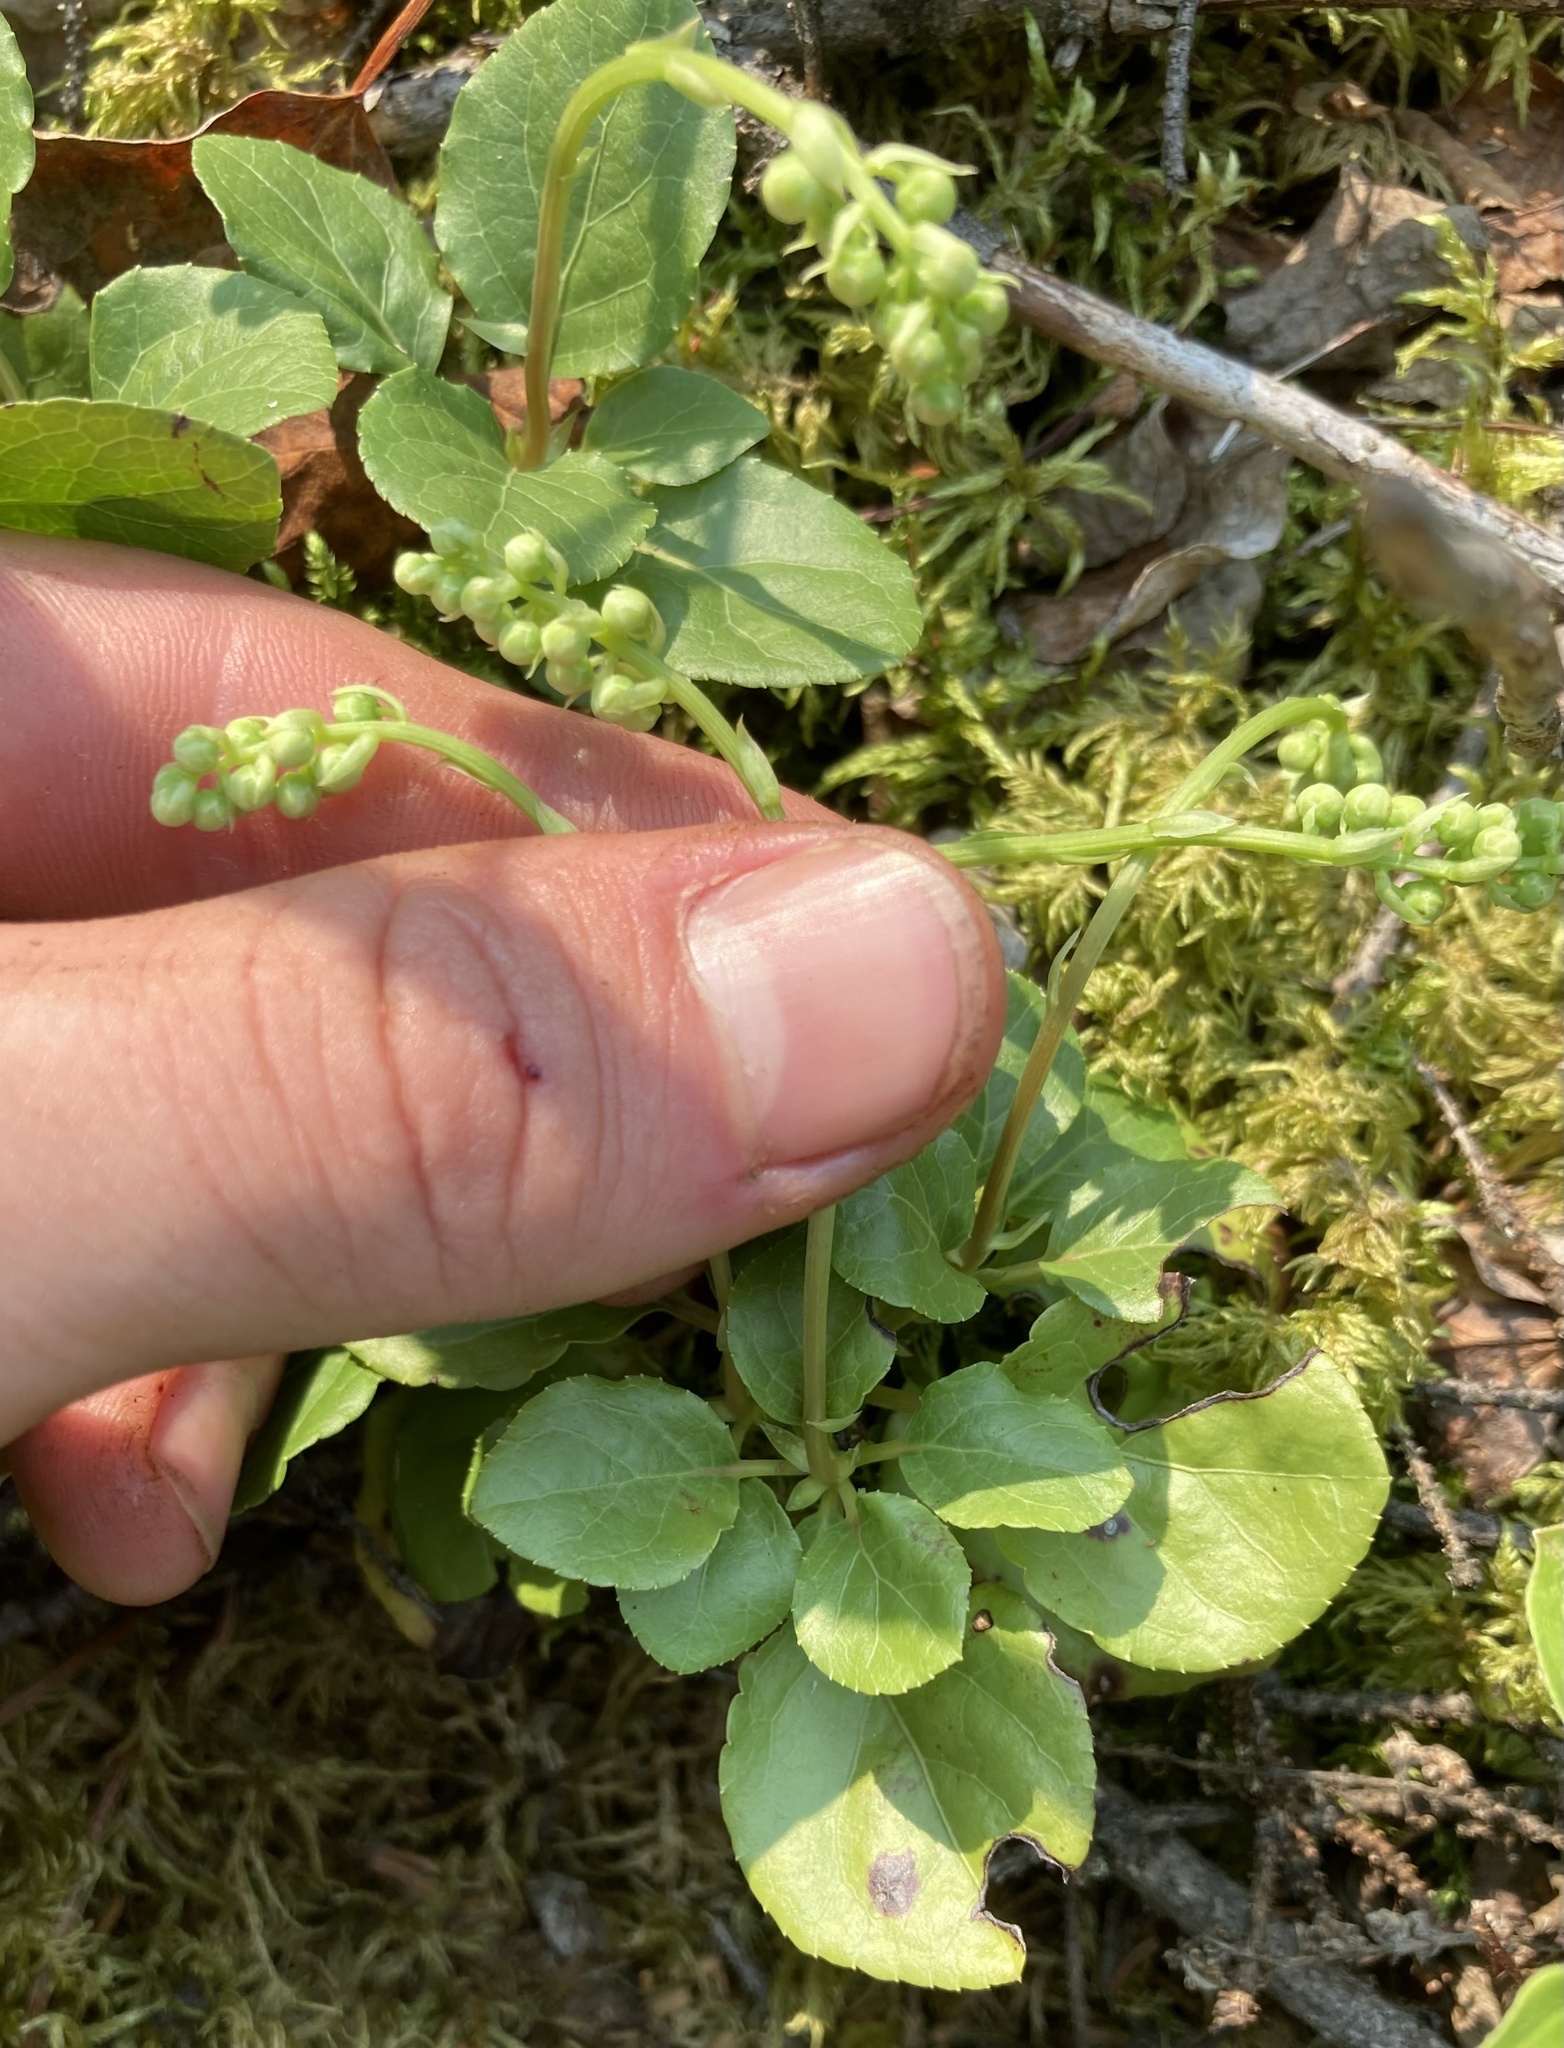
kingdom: Plantae
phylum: Tracheophyta
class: Magnoliopsida
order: Ericales
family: Ericaceae
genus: Orthilia
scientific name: Orthilia secunda
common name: One-sided orthilia
